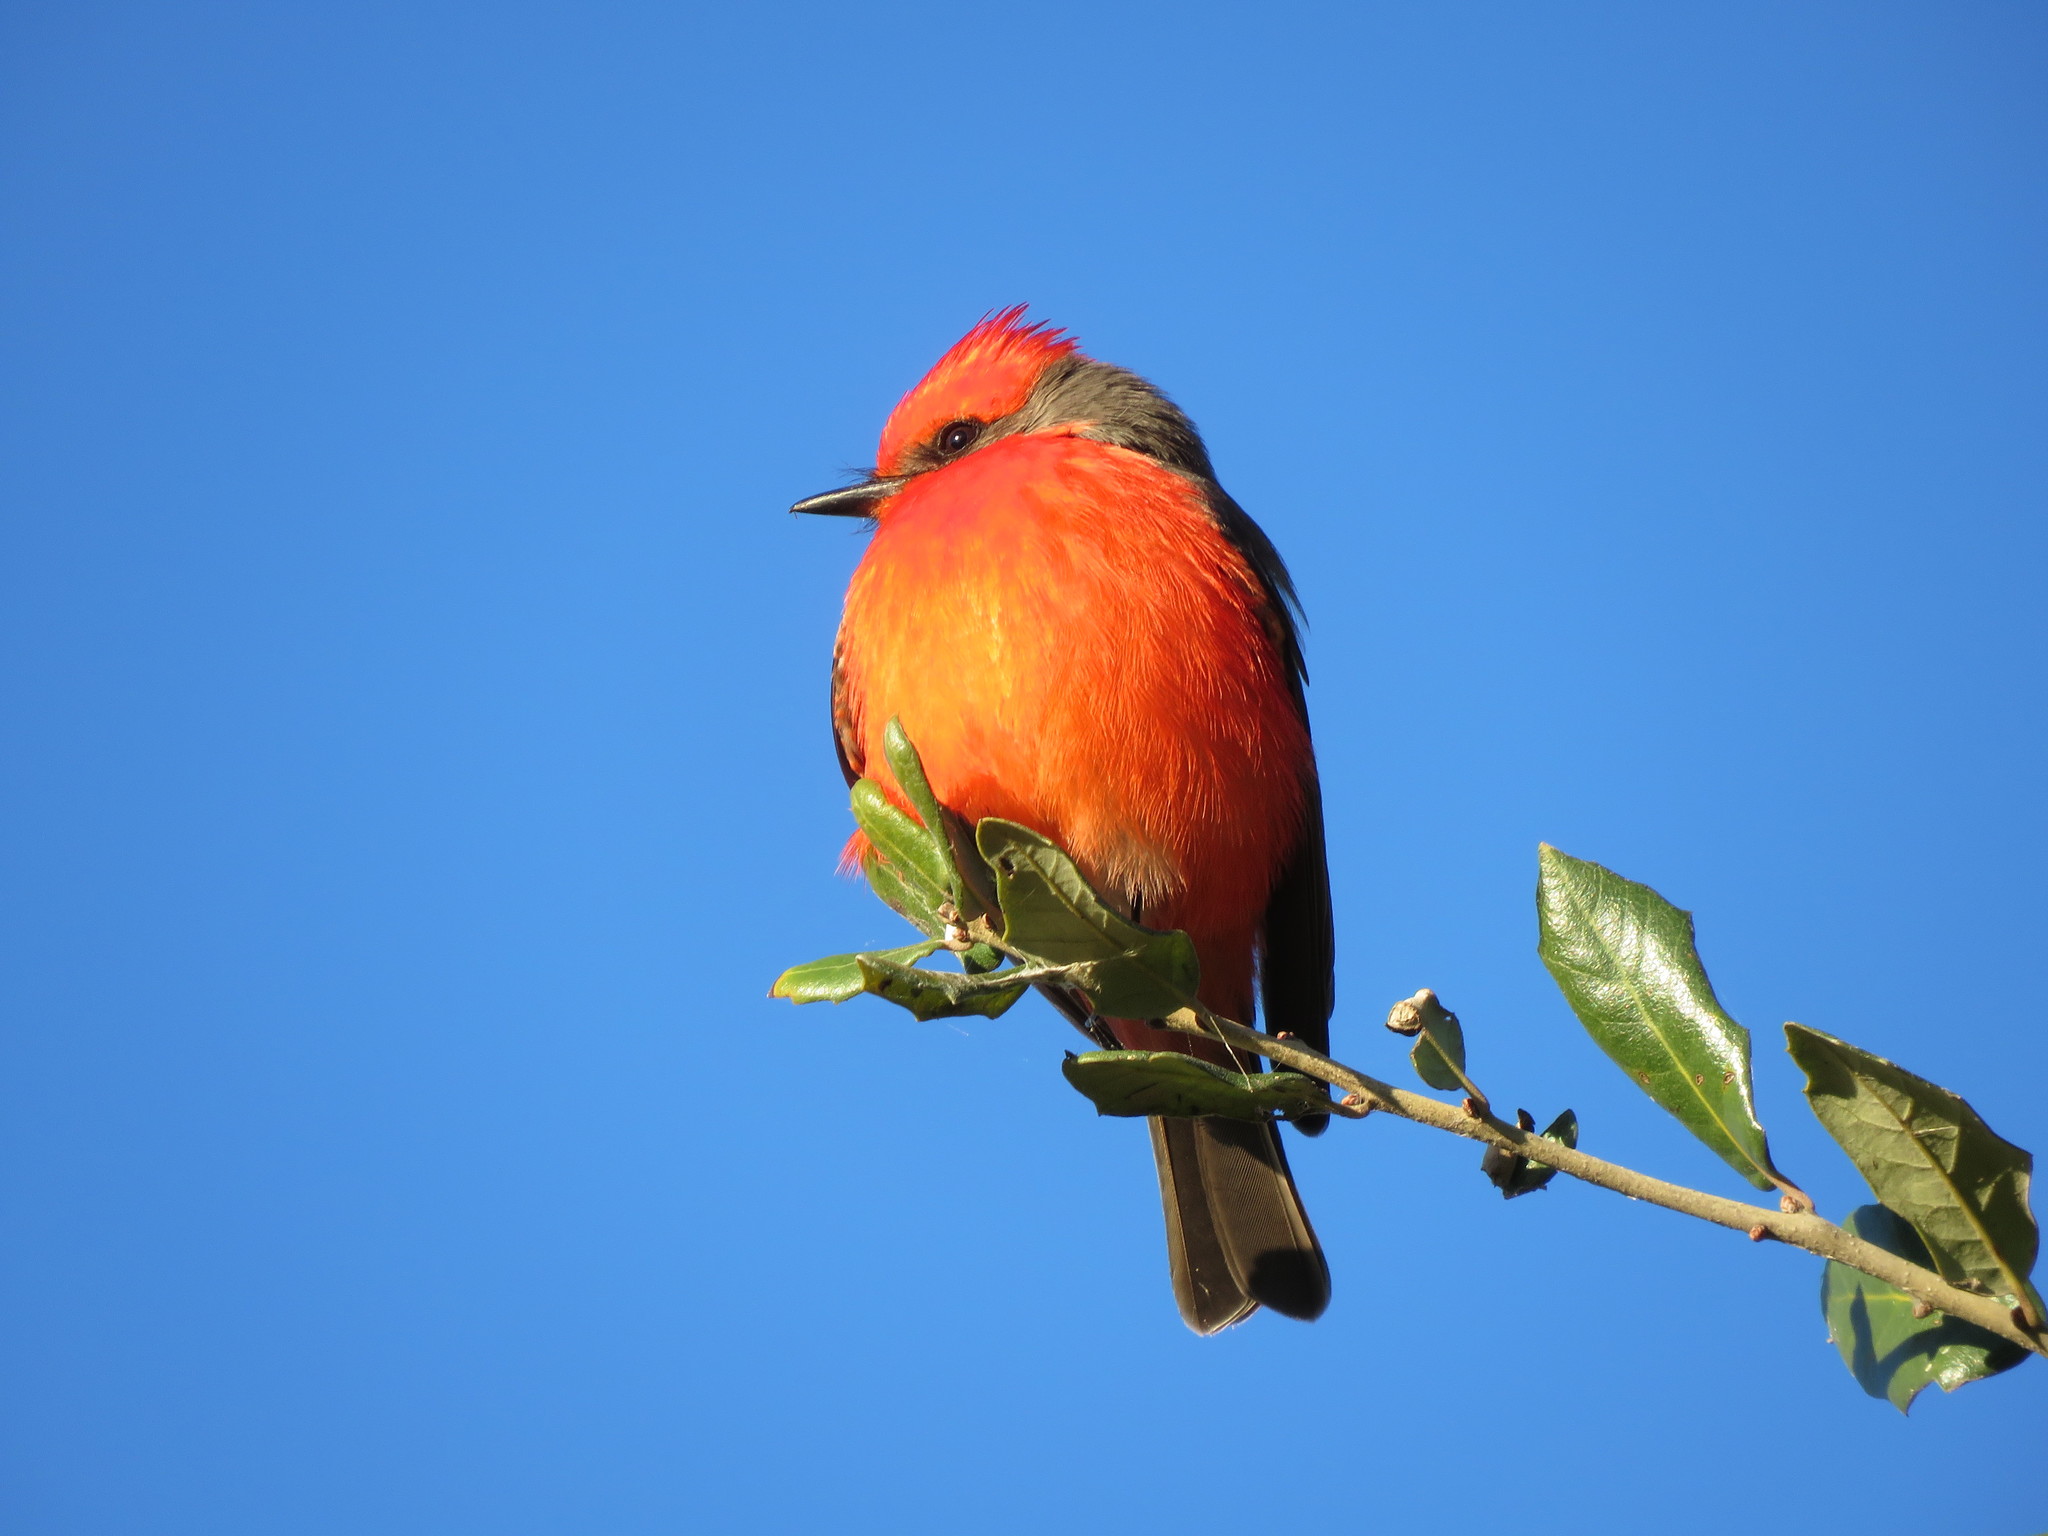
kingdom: Animalia
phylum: Chordata
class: Aves
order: Passeriformes
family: Tyrannidae
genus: Pyrocephalus
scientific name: Pyrocephalus rubinus
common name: Vermilion flycatcher
